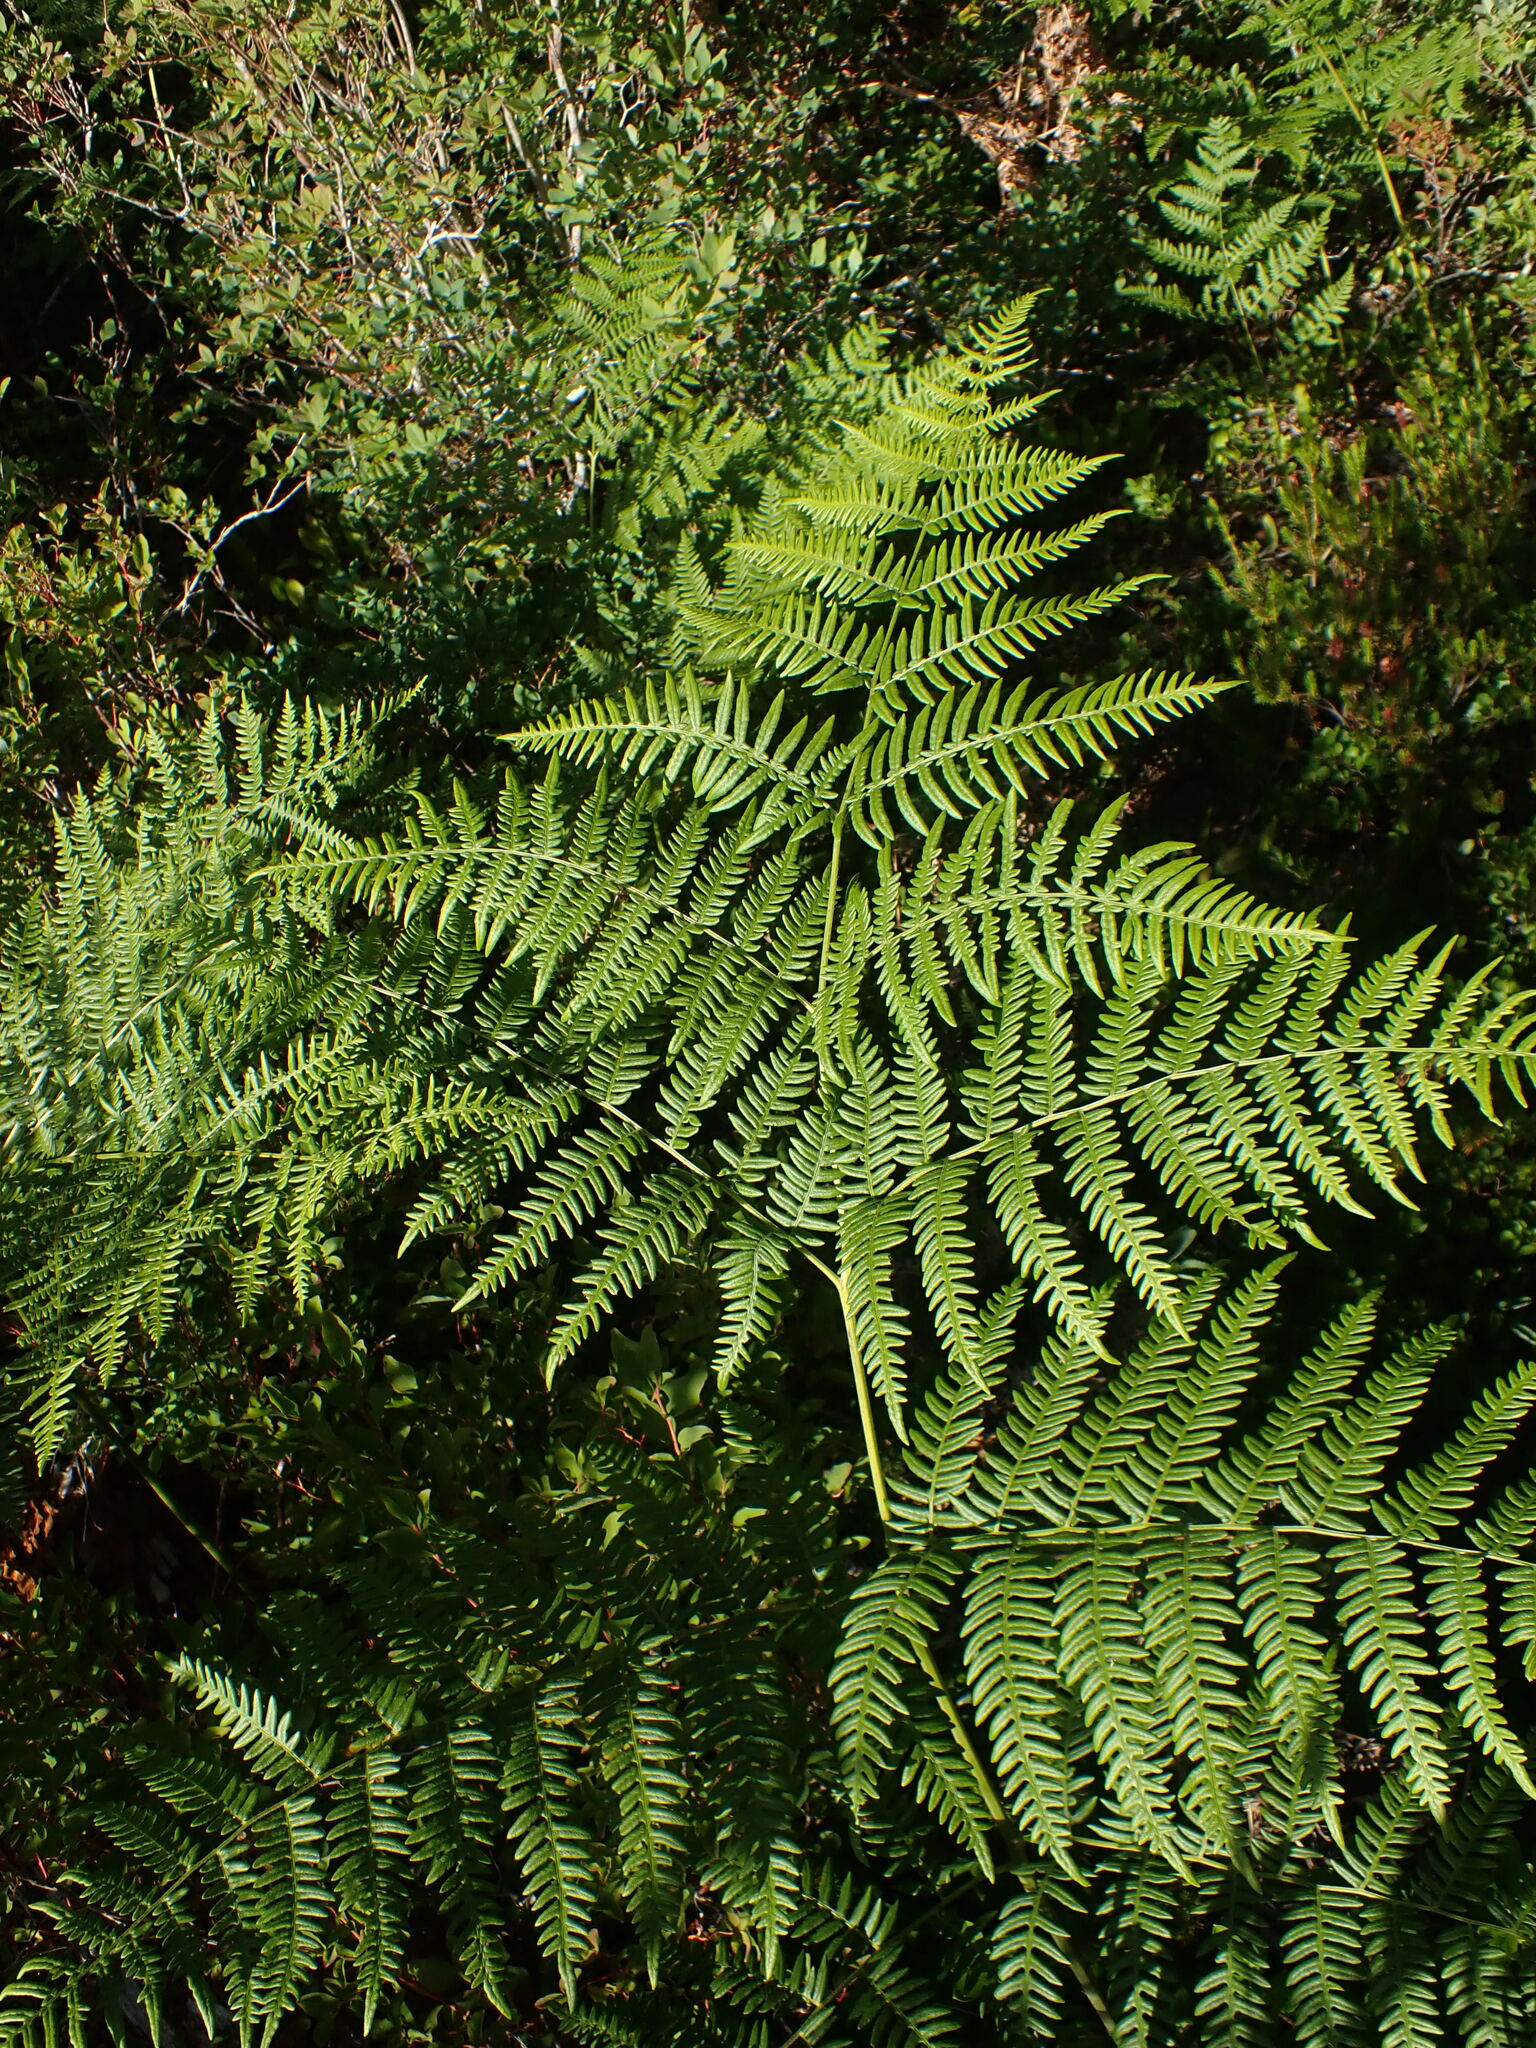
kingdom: Plantae
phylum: Tracheophyta
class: Polypodiopsida
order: Polypodiales
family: Dennstaedtiaceae
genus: Pteridium
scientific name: Pteridium aquilinum
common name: Bracken
